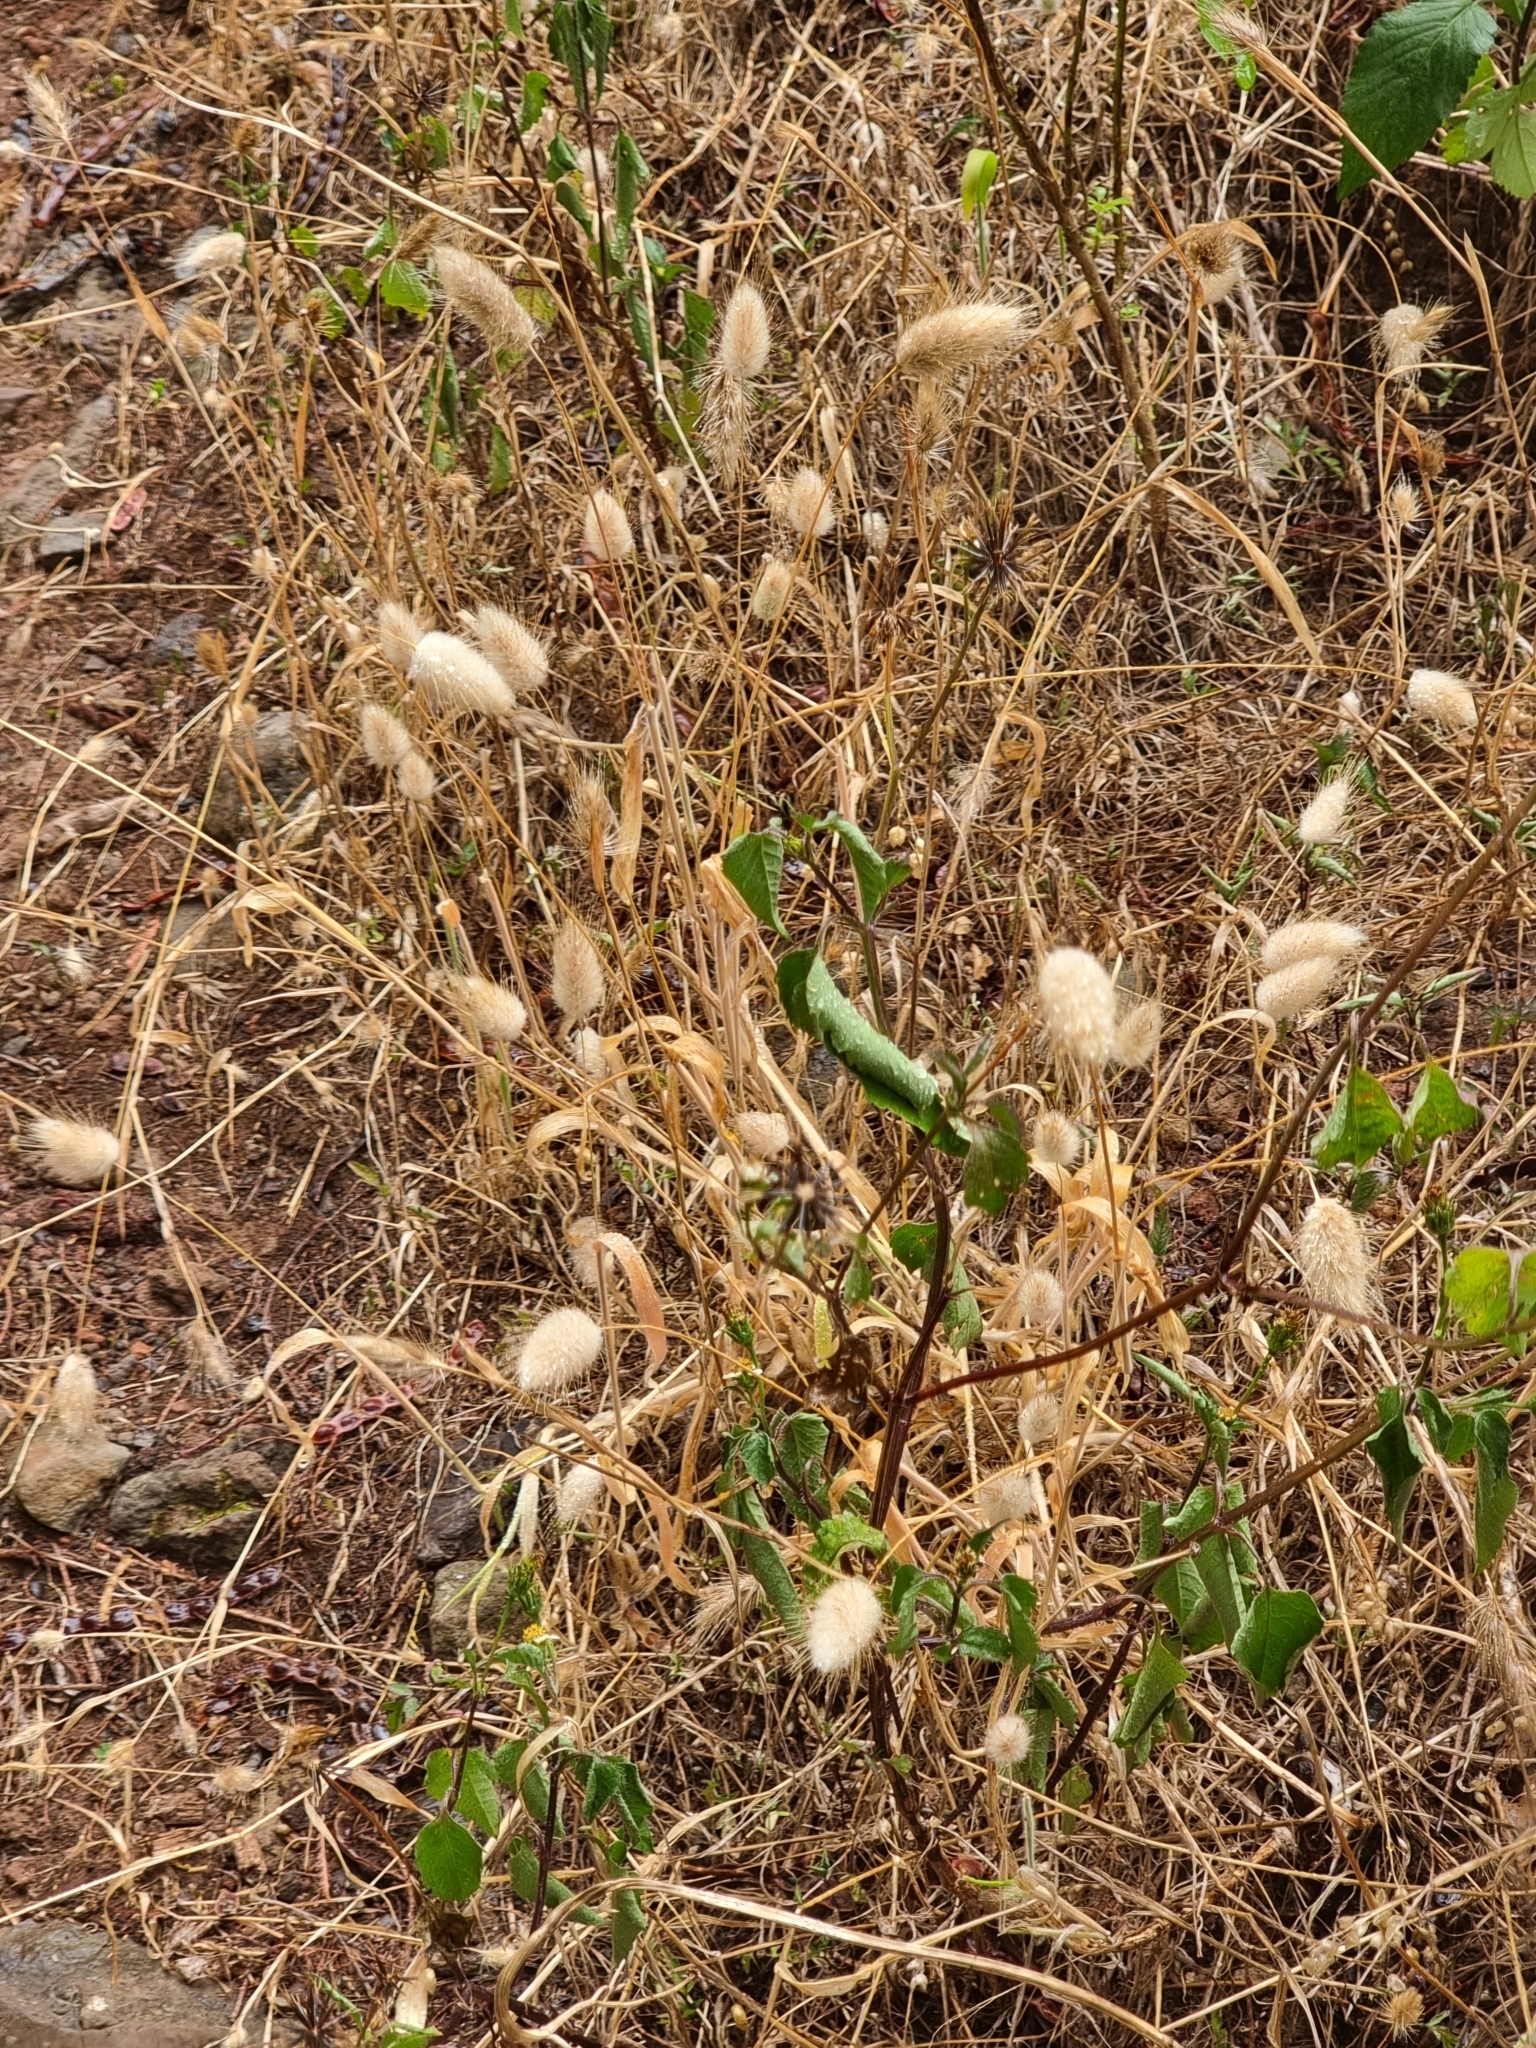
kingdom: Plantae
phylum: Tracheophyta
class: Liliopsida
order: Poales
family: Poaceae
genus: Lagurus
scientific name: Lagurus ovatus
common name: Hare's-tail
